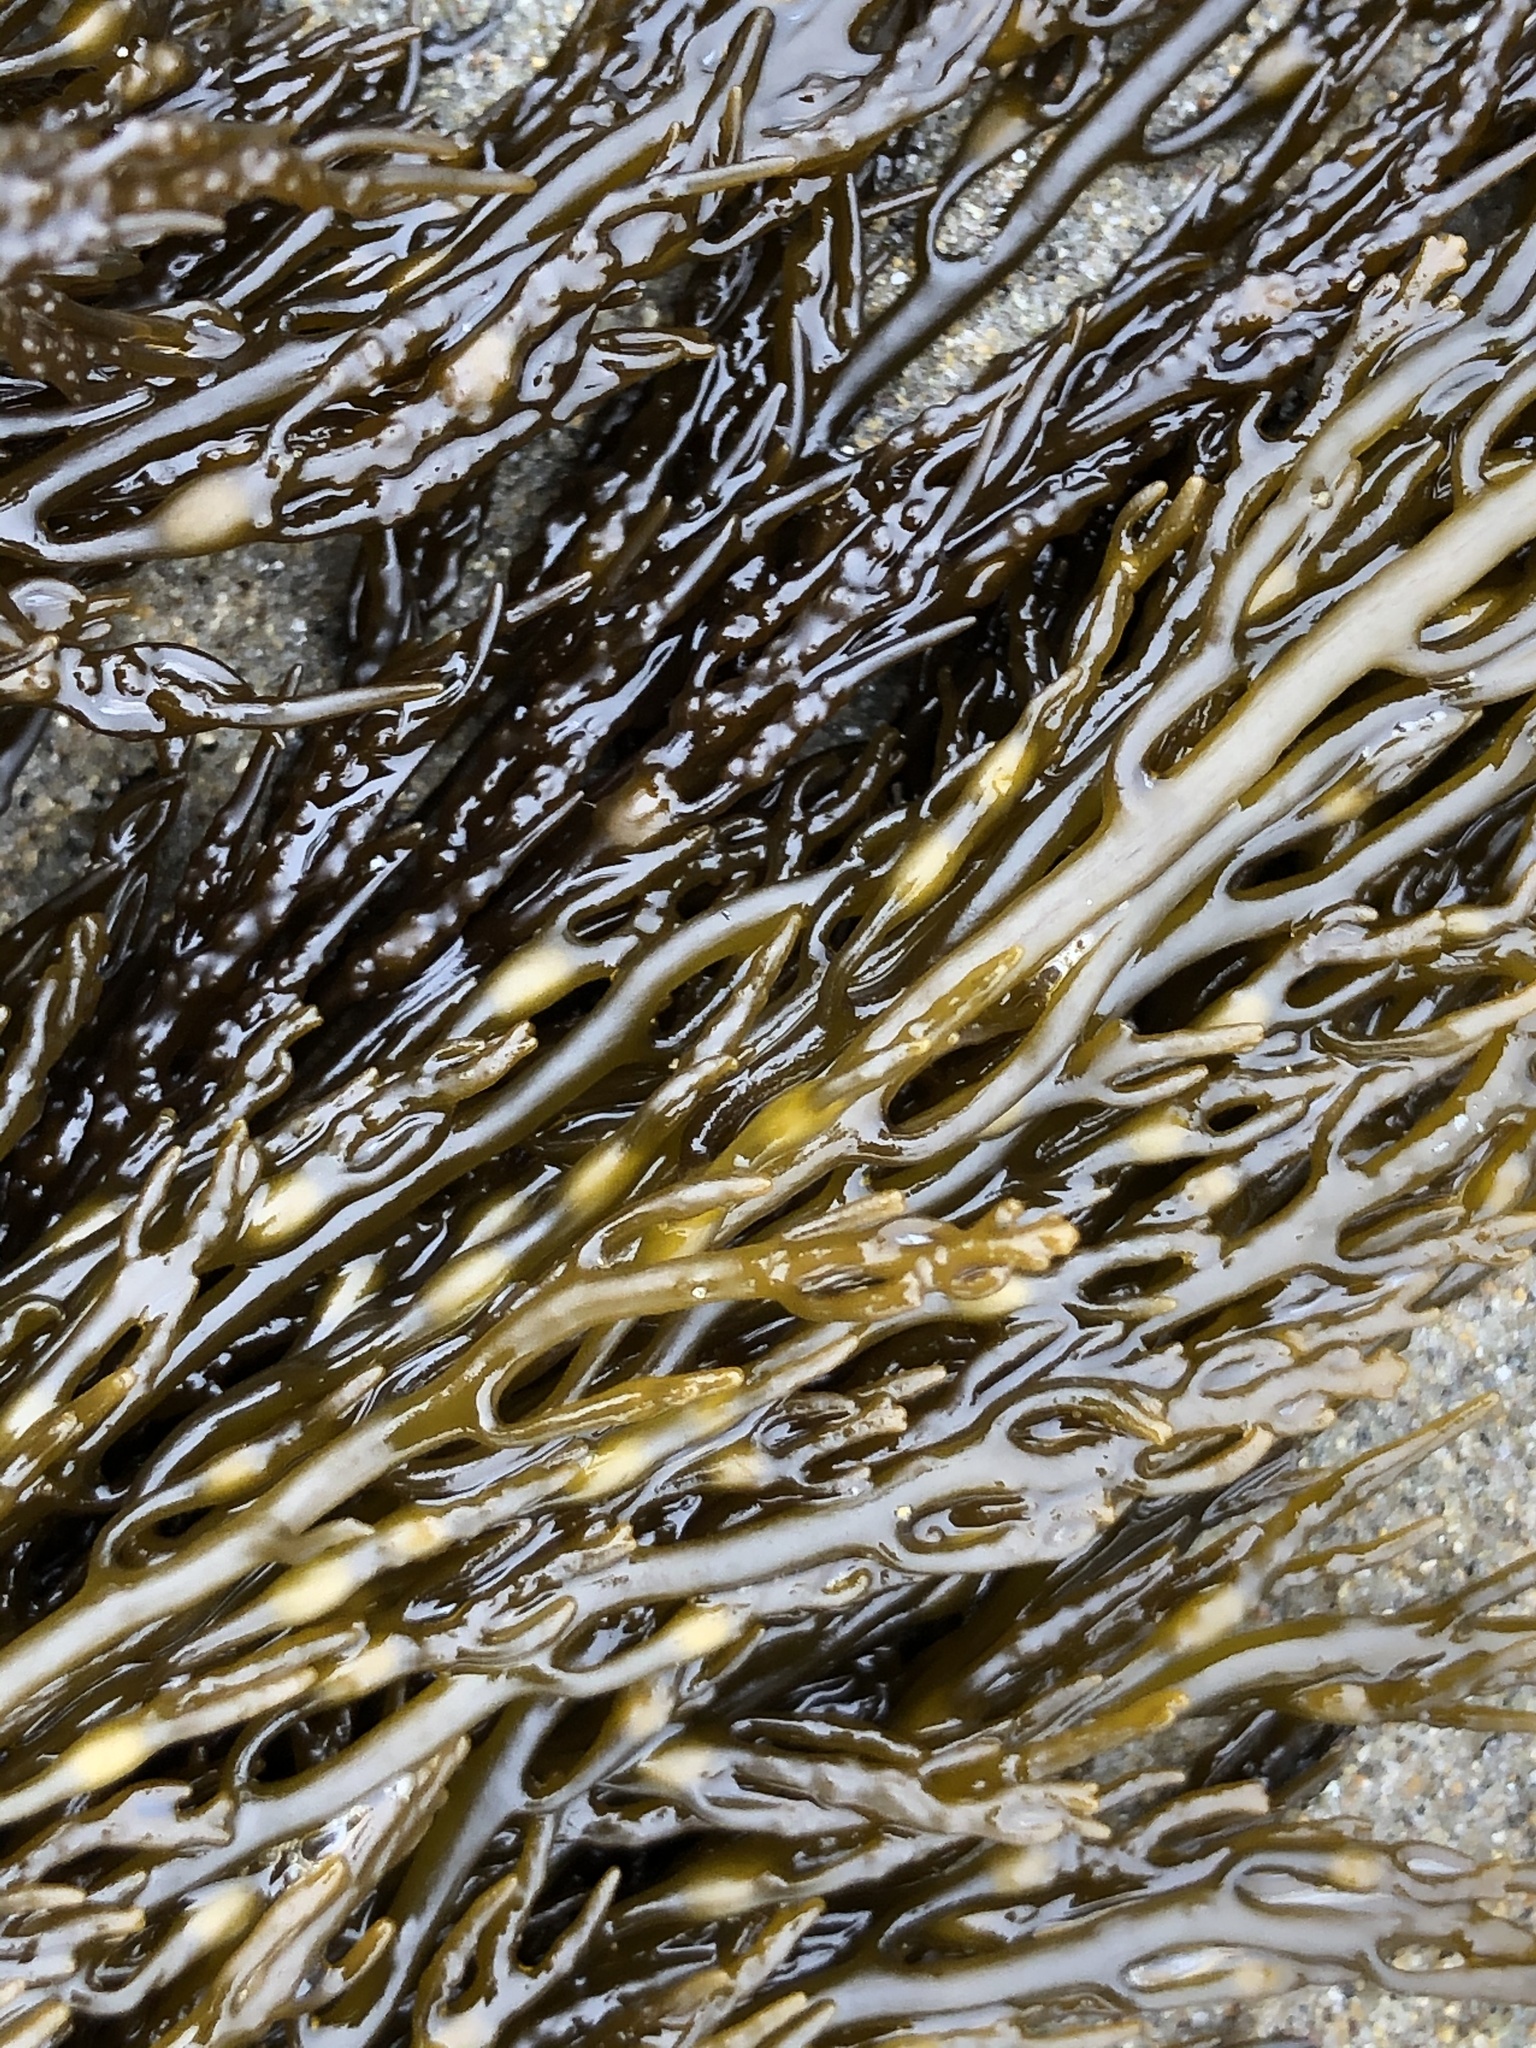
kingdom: Chromista
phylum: Ochrophyta
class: Phaeophyceae
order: Fucales
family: Sargassaceae
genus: Stephanocystis
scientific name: Stephanocystis
